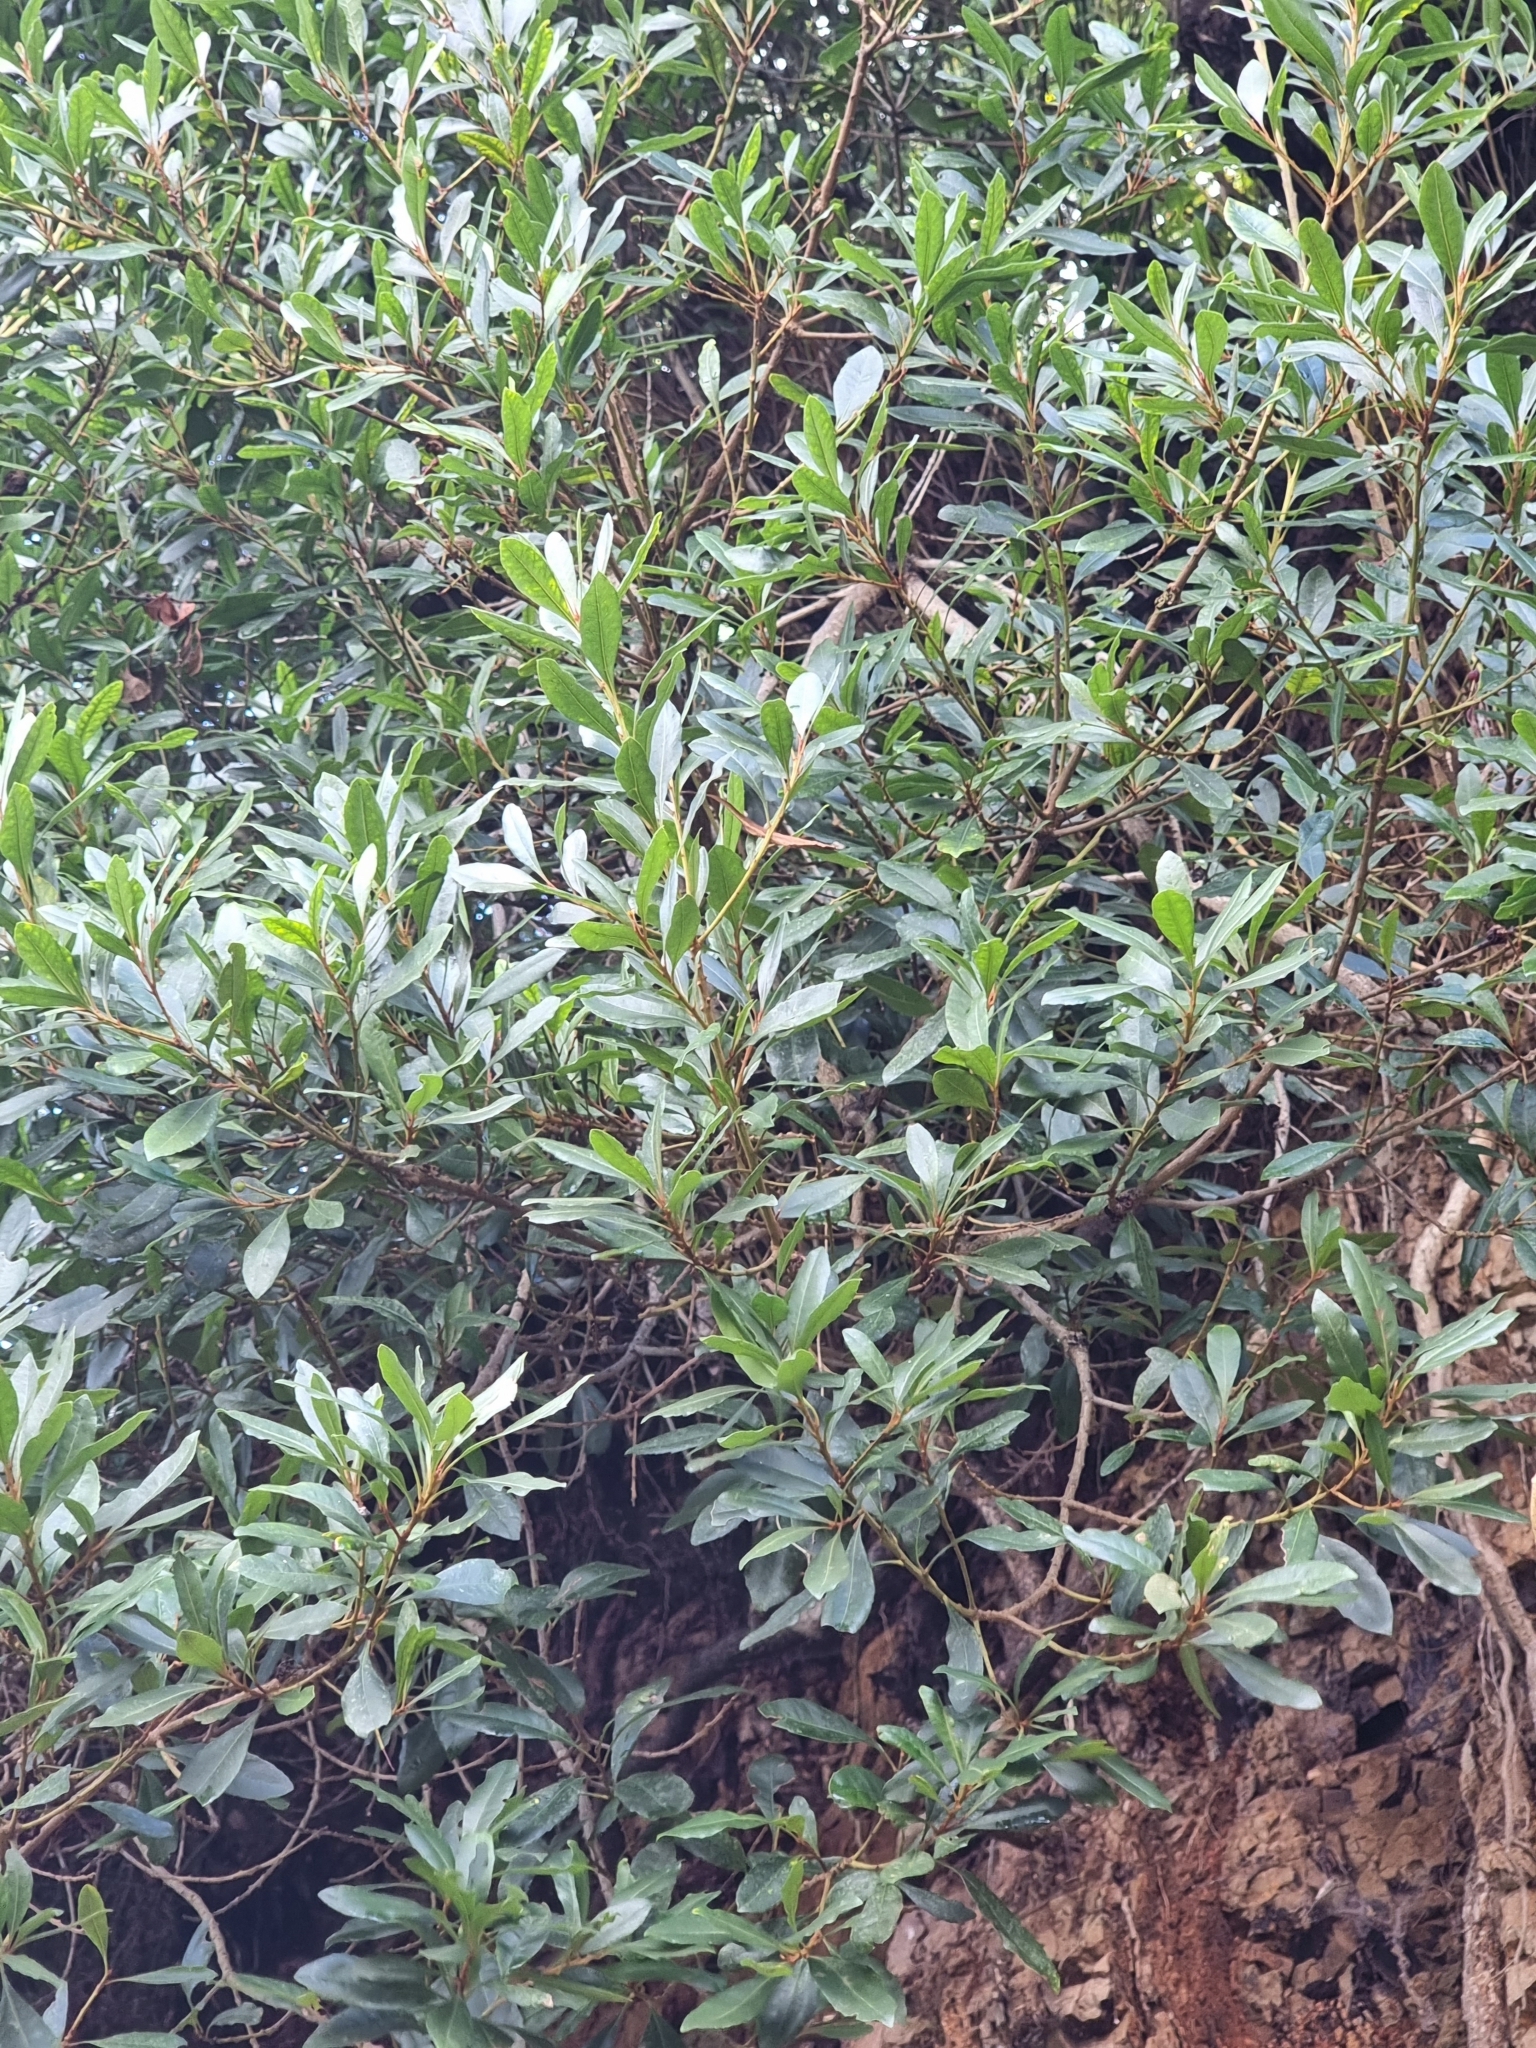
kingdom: Plantae
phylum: Tracheophyta
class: Magnoliopsida
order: Fagales
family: Myricaceae
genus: Morella
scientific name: Morella faya
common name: Firetree
